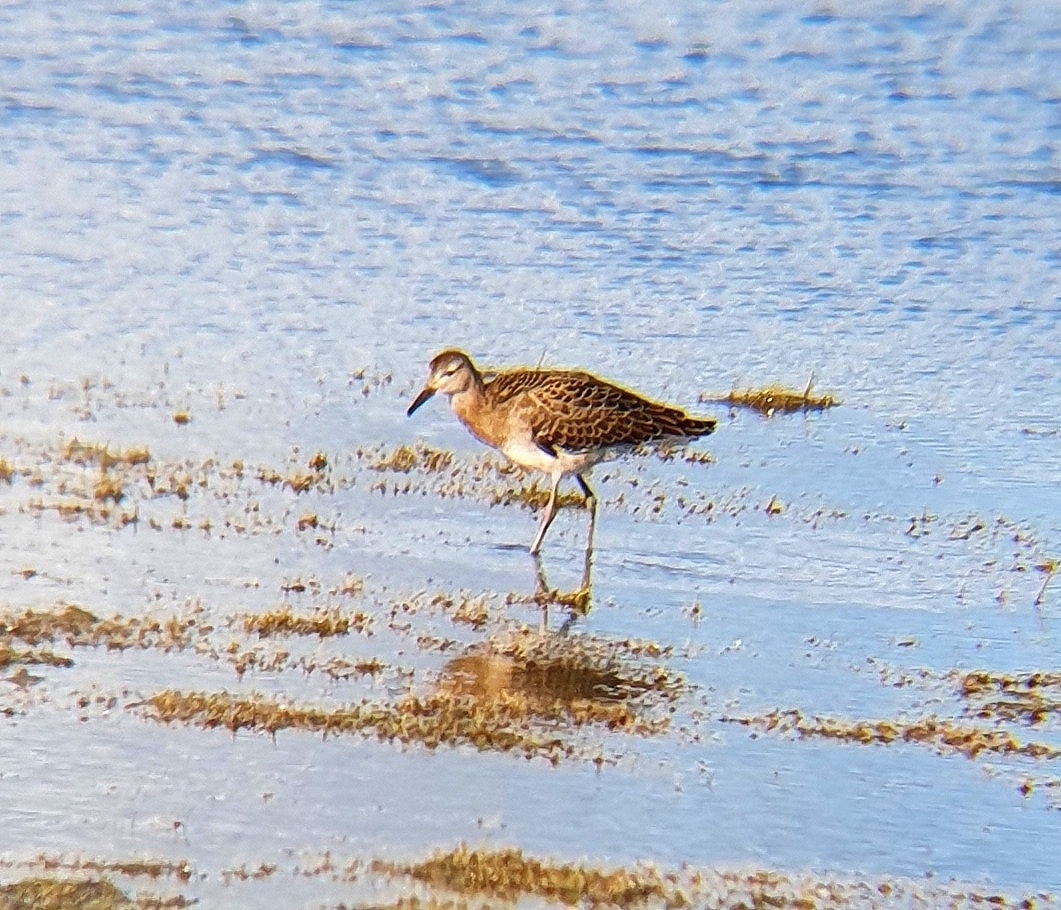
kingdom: Animalia
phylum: Chordata
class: Aves
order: Charadriiformes
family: Scolopacidae
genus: Calidris
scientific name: Calidris pugnax
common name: Ruff
